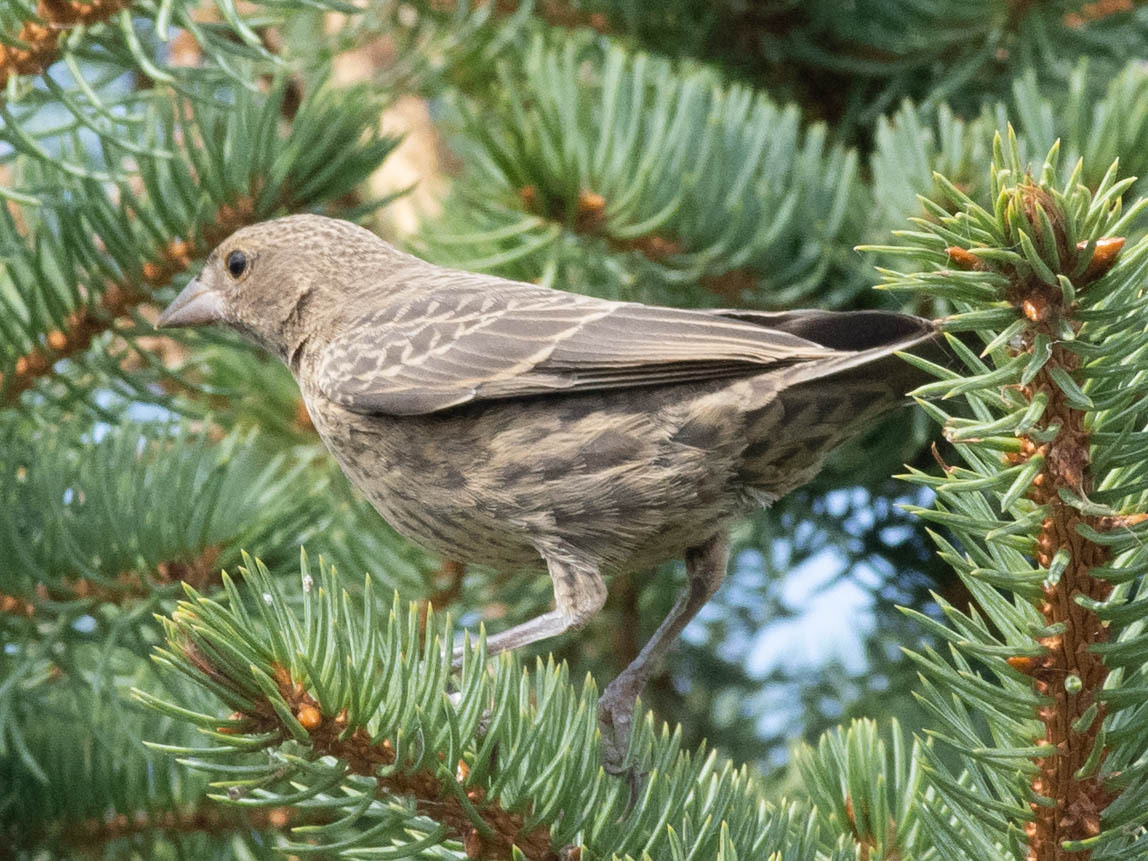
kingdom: Animalia
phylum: Chordata
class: Aves
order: Passeriformes
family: Icteridae
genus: Molothrus
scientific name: Molothrus ater
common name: Brown-headed cowbird
